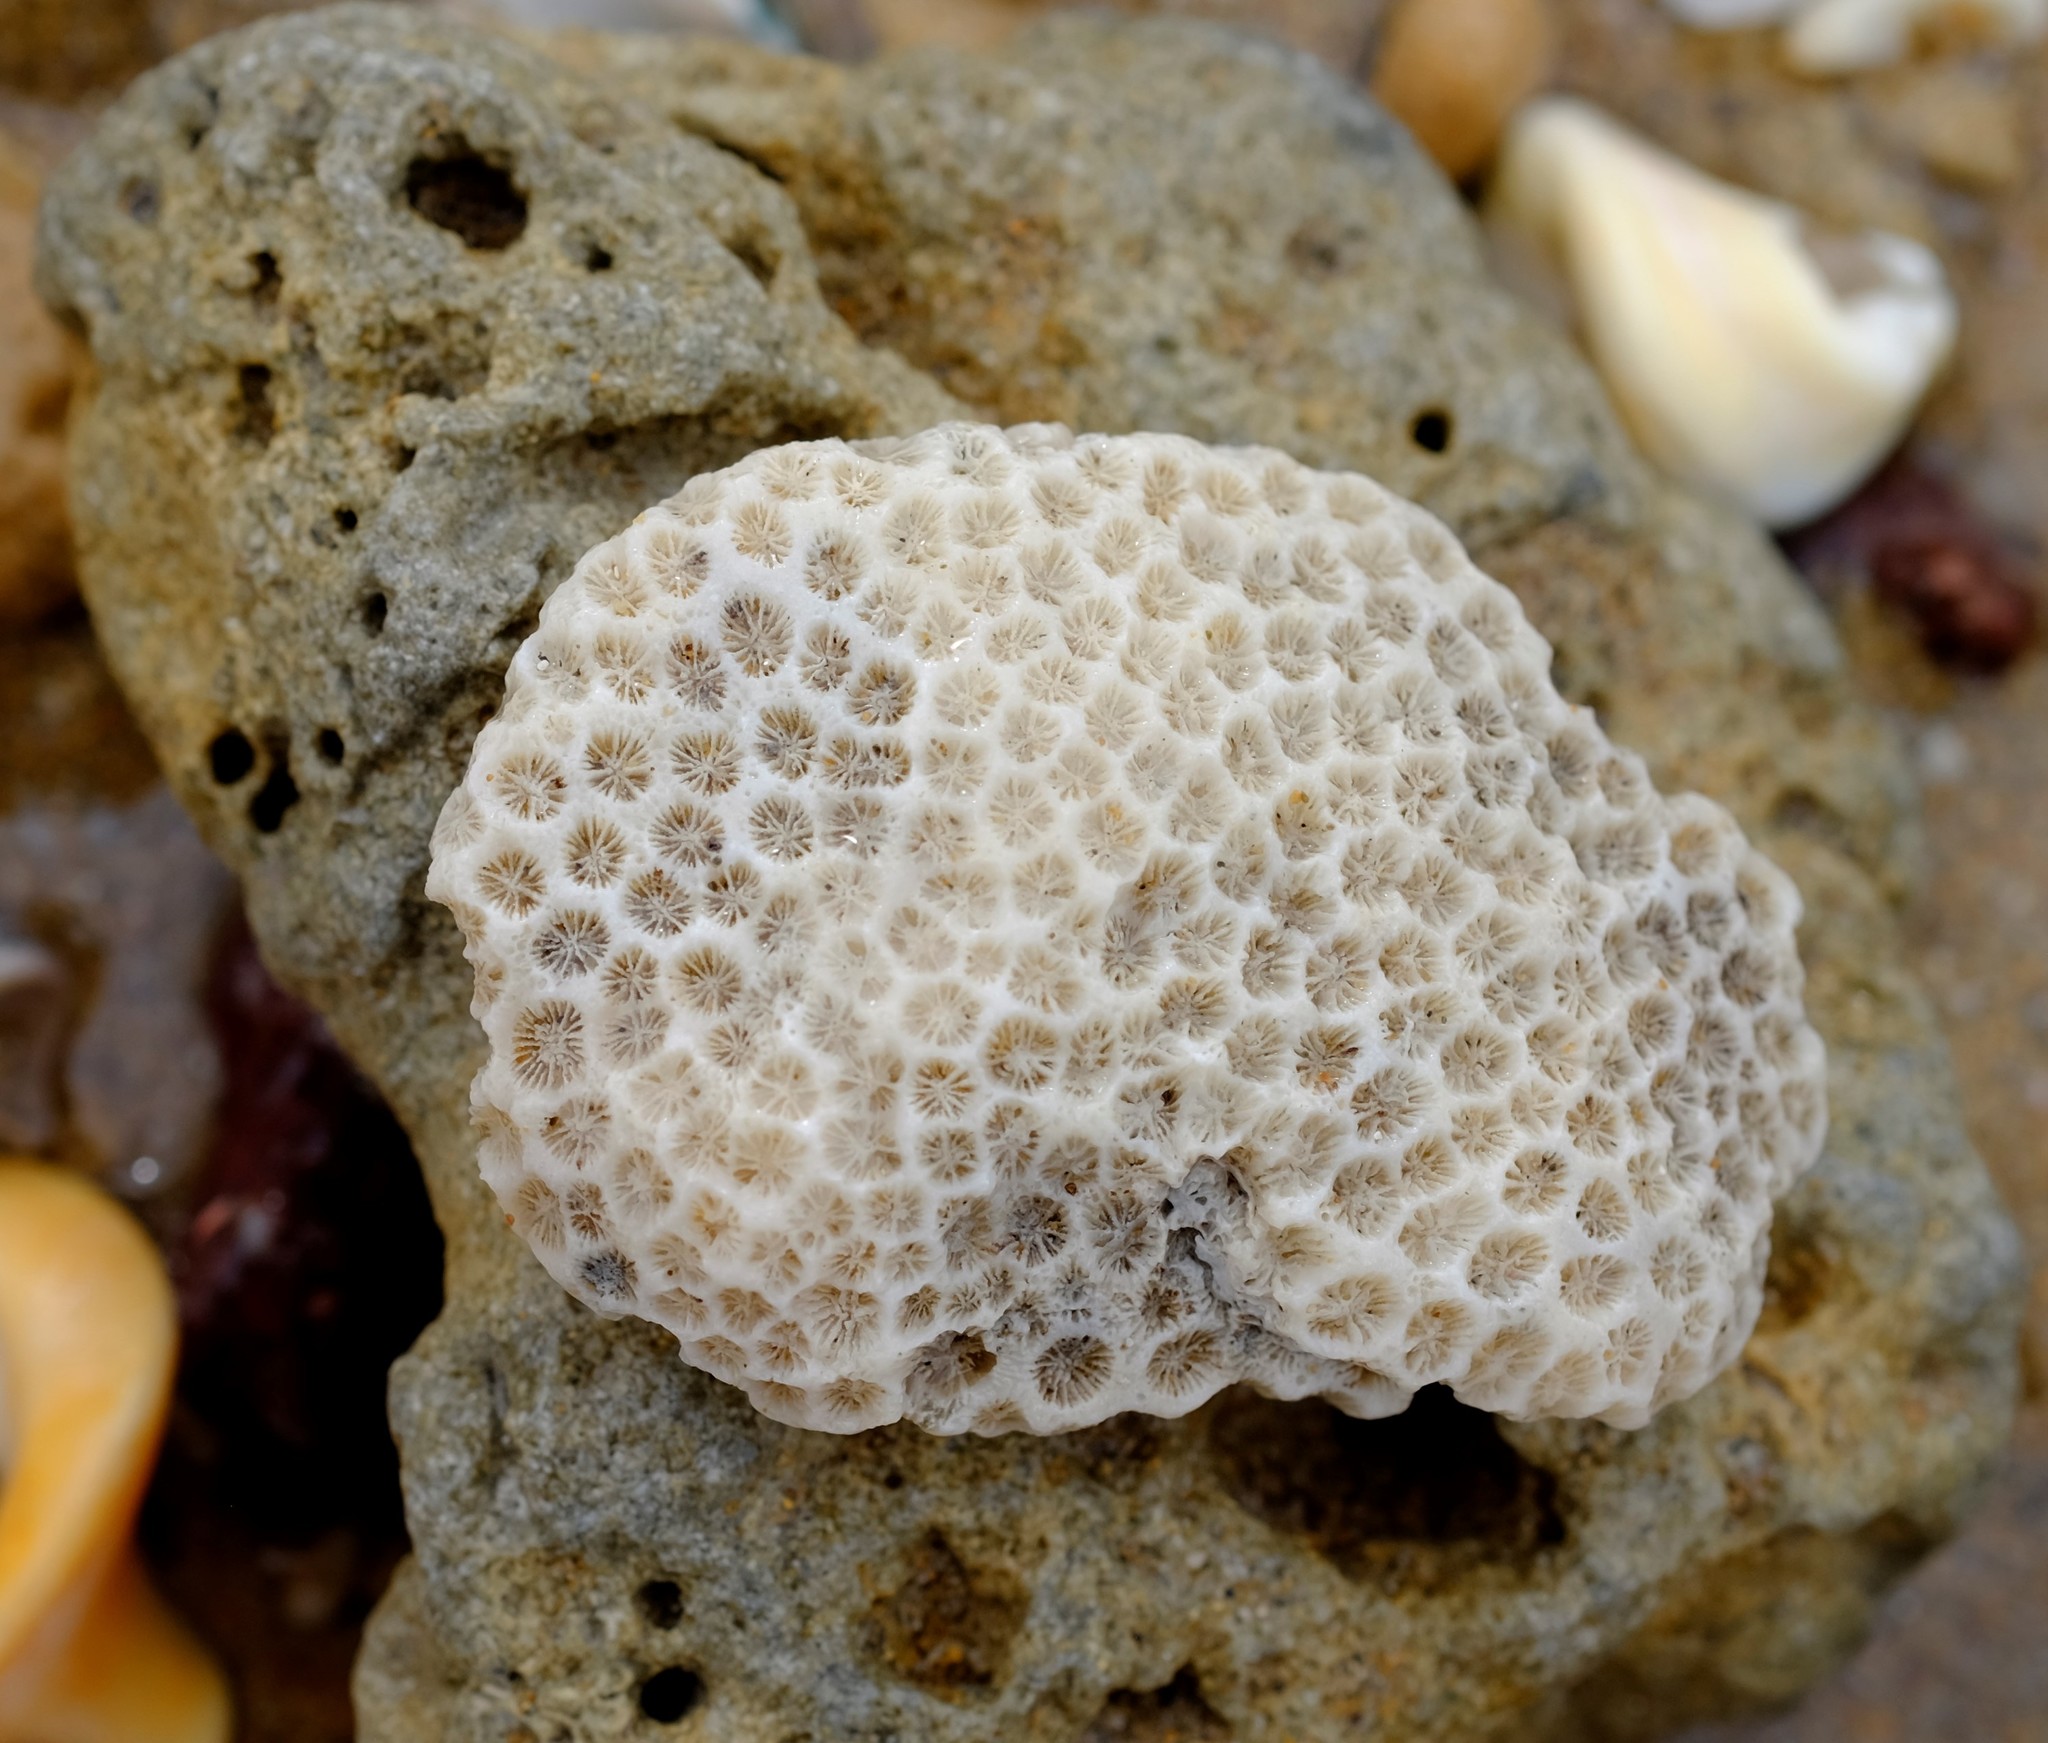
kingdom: Animalia
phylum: Cnidaria
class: Anthozoa
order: Scleractinia
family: Plesiastreidae
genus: Plesiastrea
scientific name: Plesiastrea versipora
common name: Small knob coral
